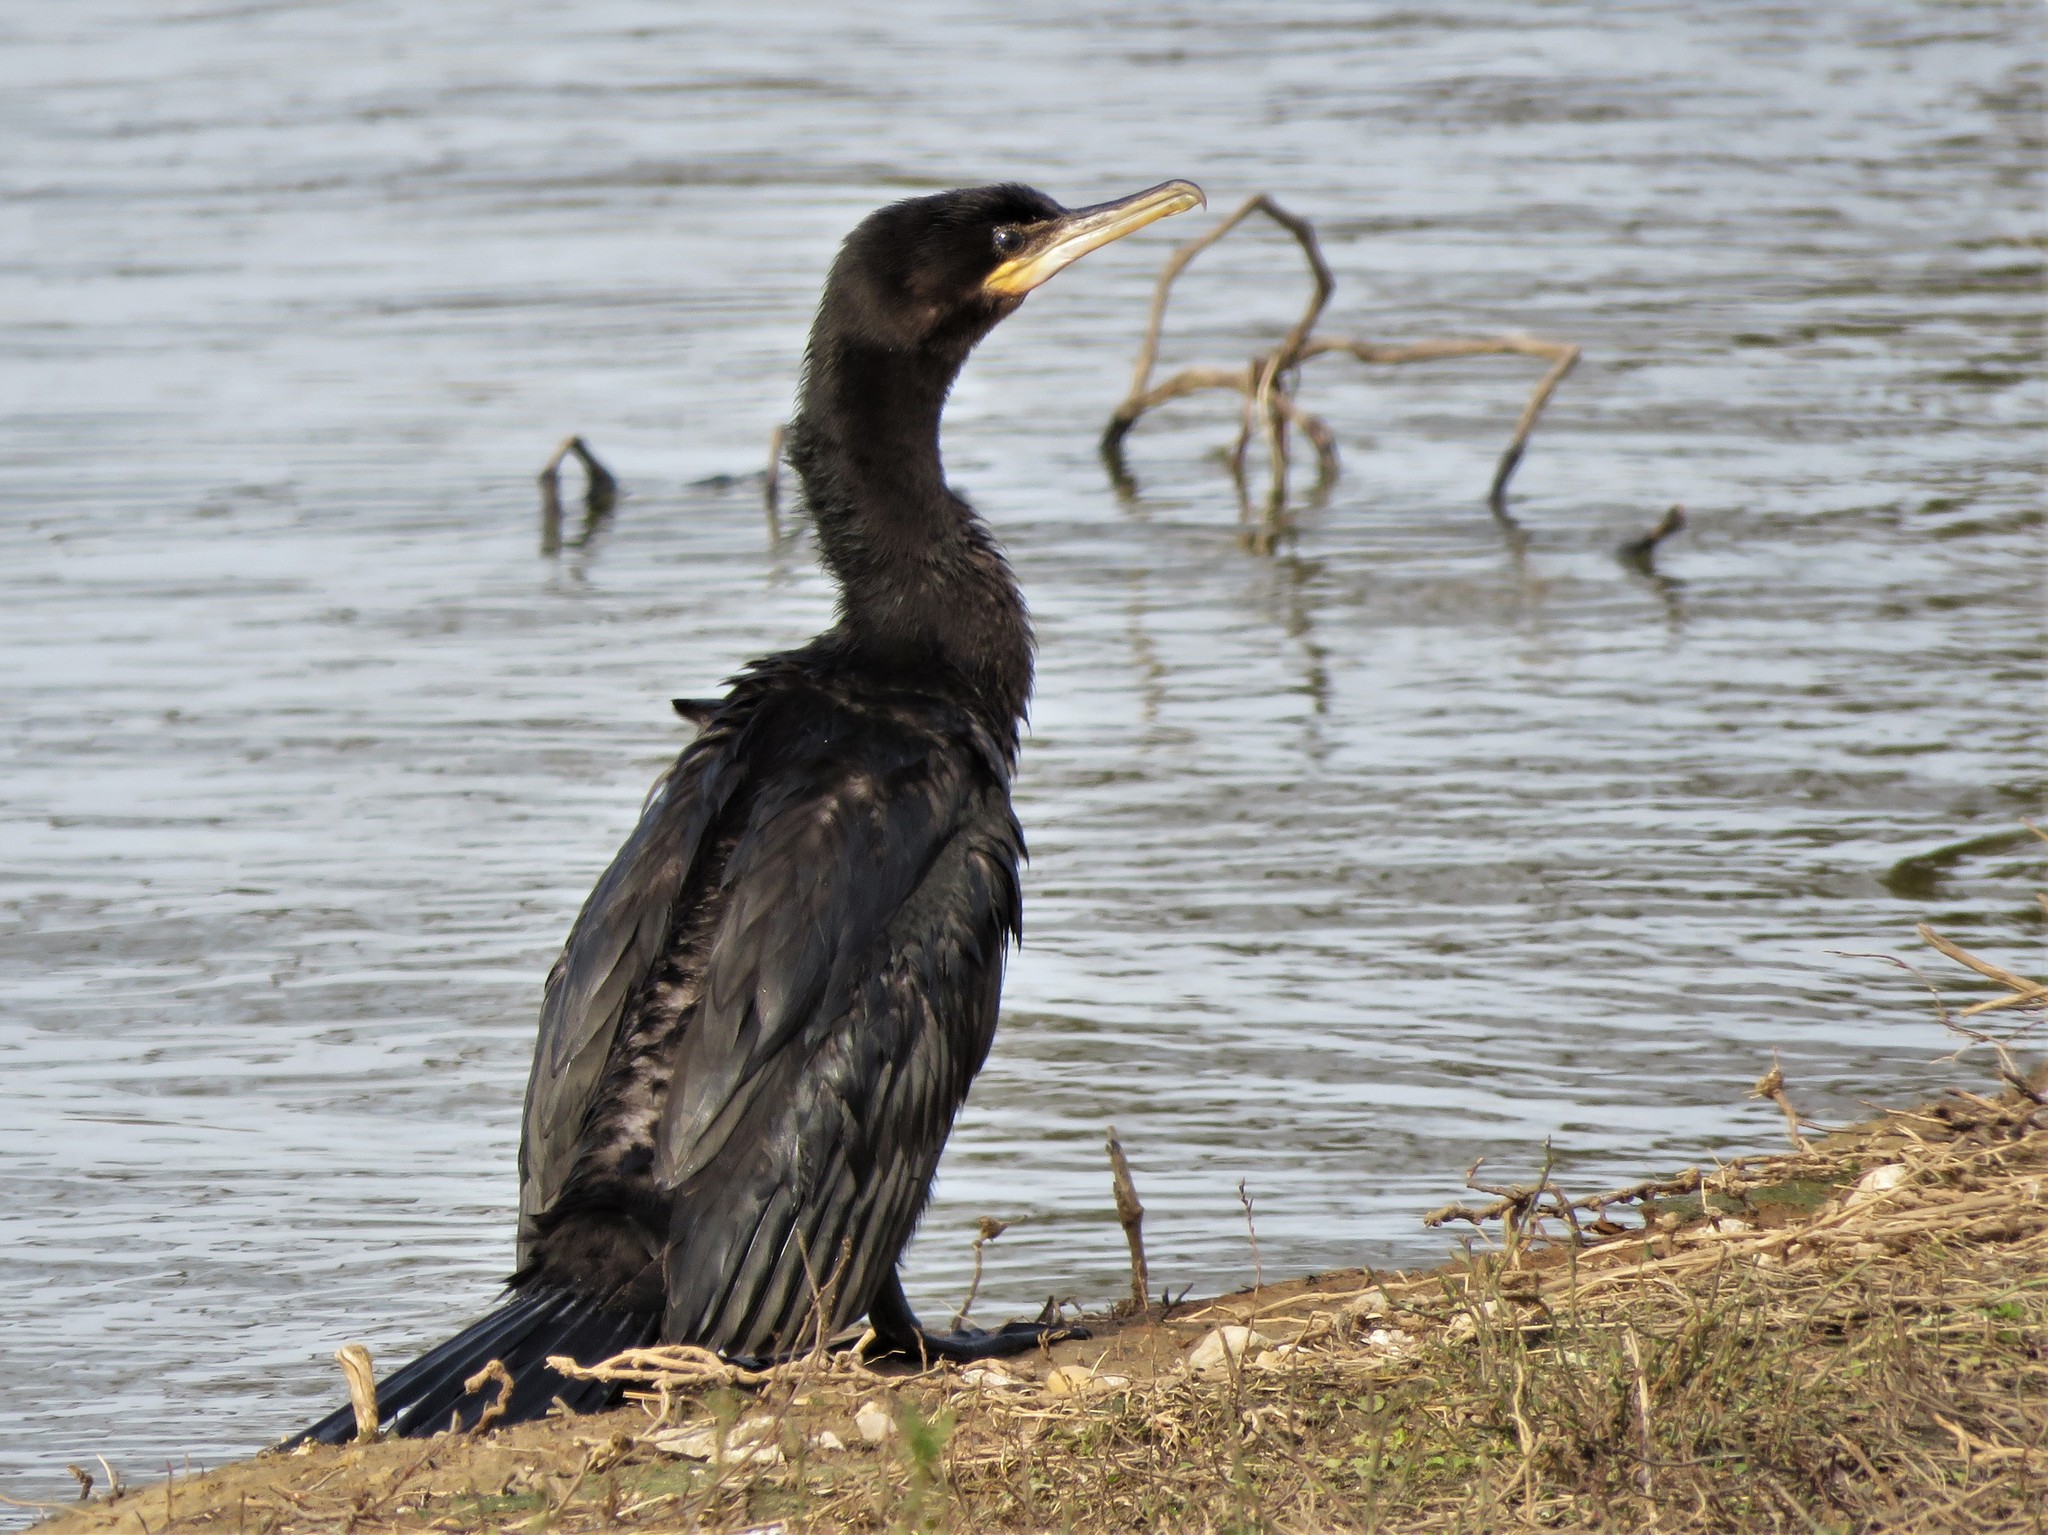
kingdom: Animalia
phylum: Chordata
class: Aves
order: Suliformes
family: Phalacrocoracidae
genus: Phalacrocorax
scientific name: Phalacrocorax brasilianus
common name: Neotropic cormorant
